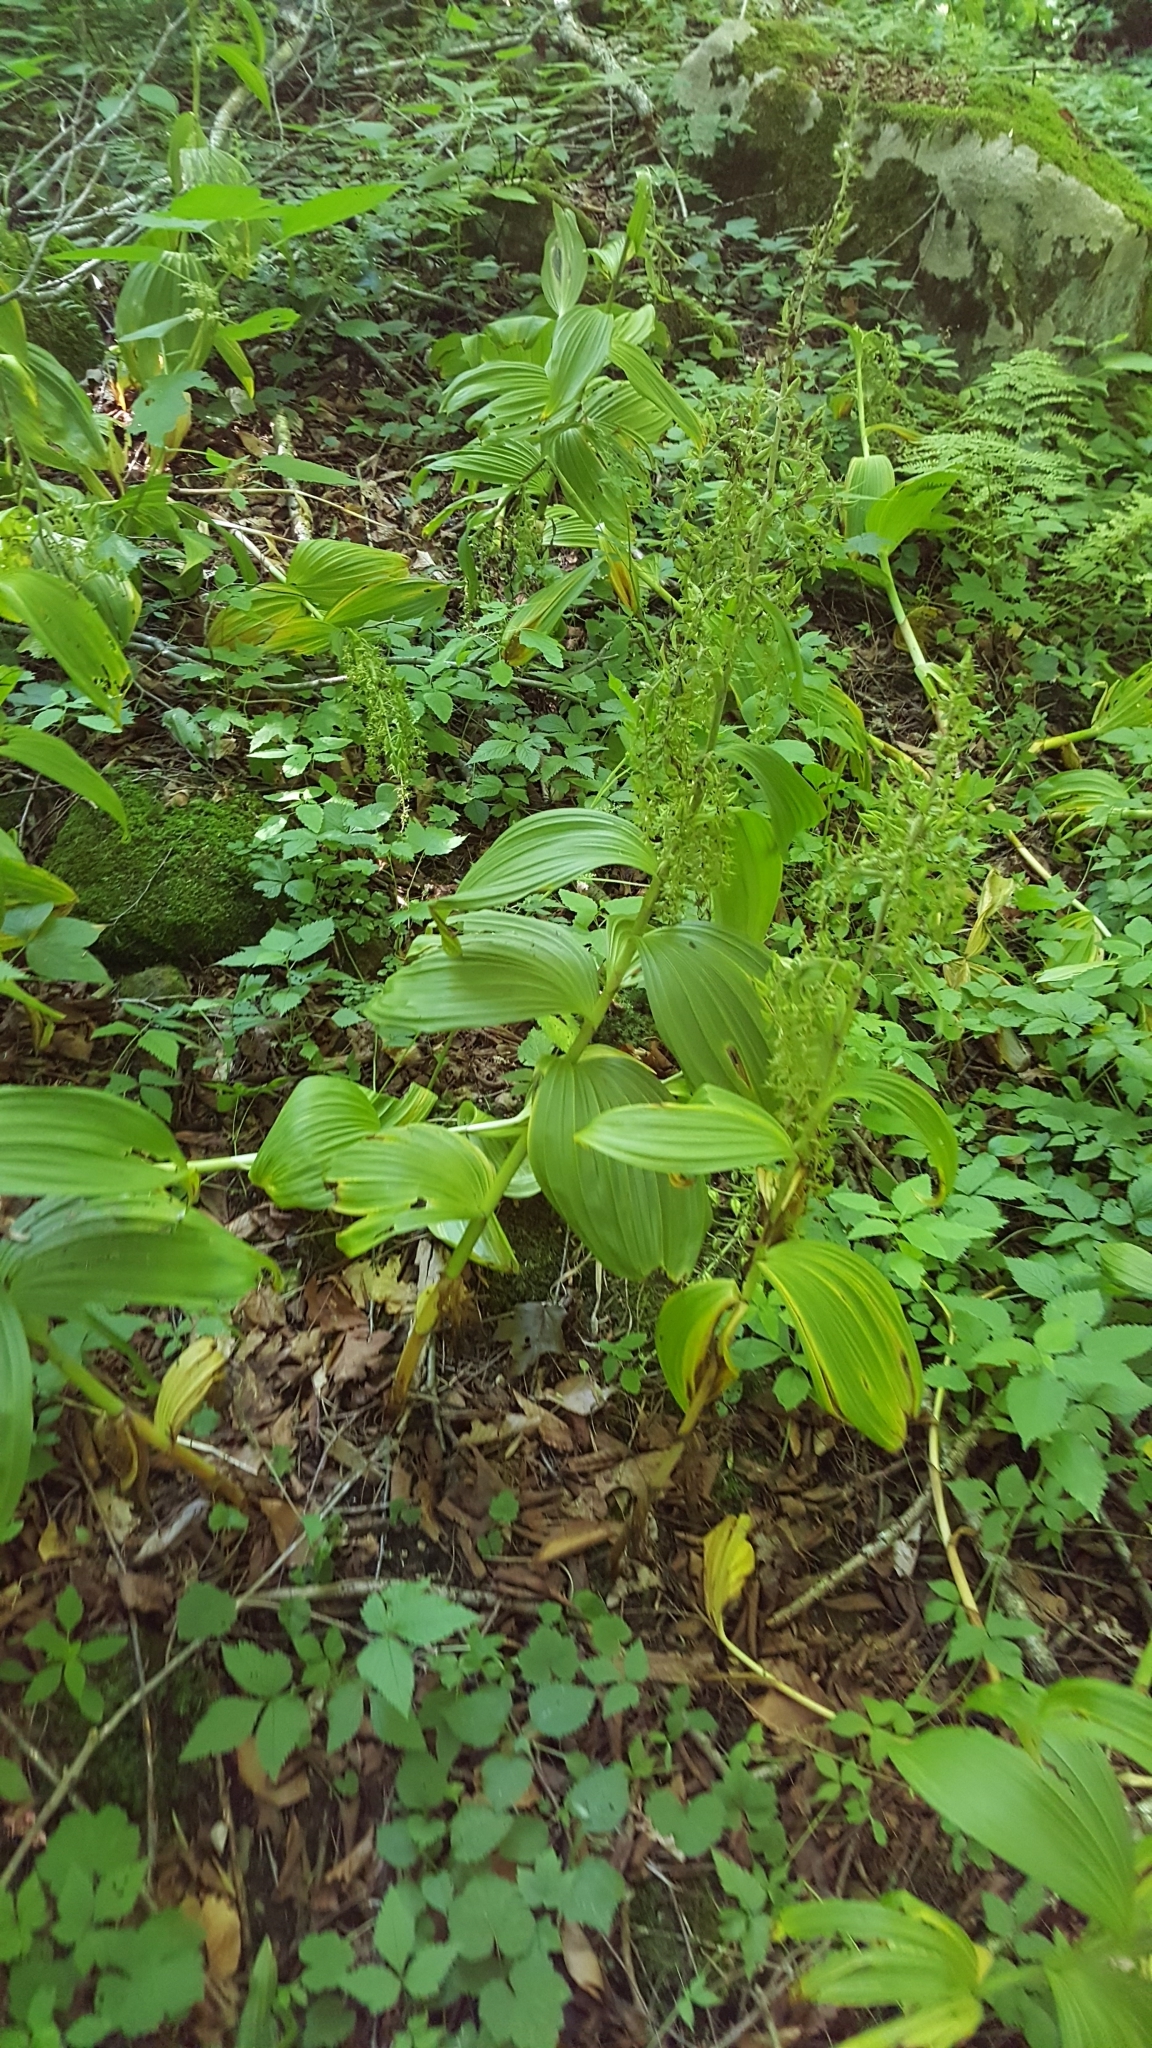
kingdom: Plantae
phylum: Tracheophyta
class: Liliopsida
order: Liliales
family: Melanthiaceae
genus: Veratrum
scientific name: Veratrum viride
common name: American false hellebore
